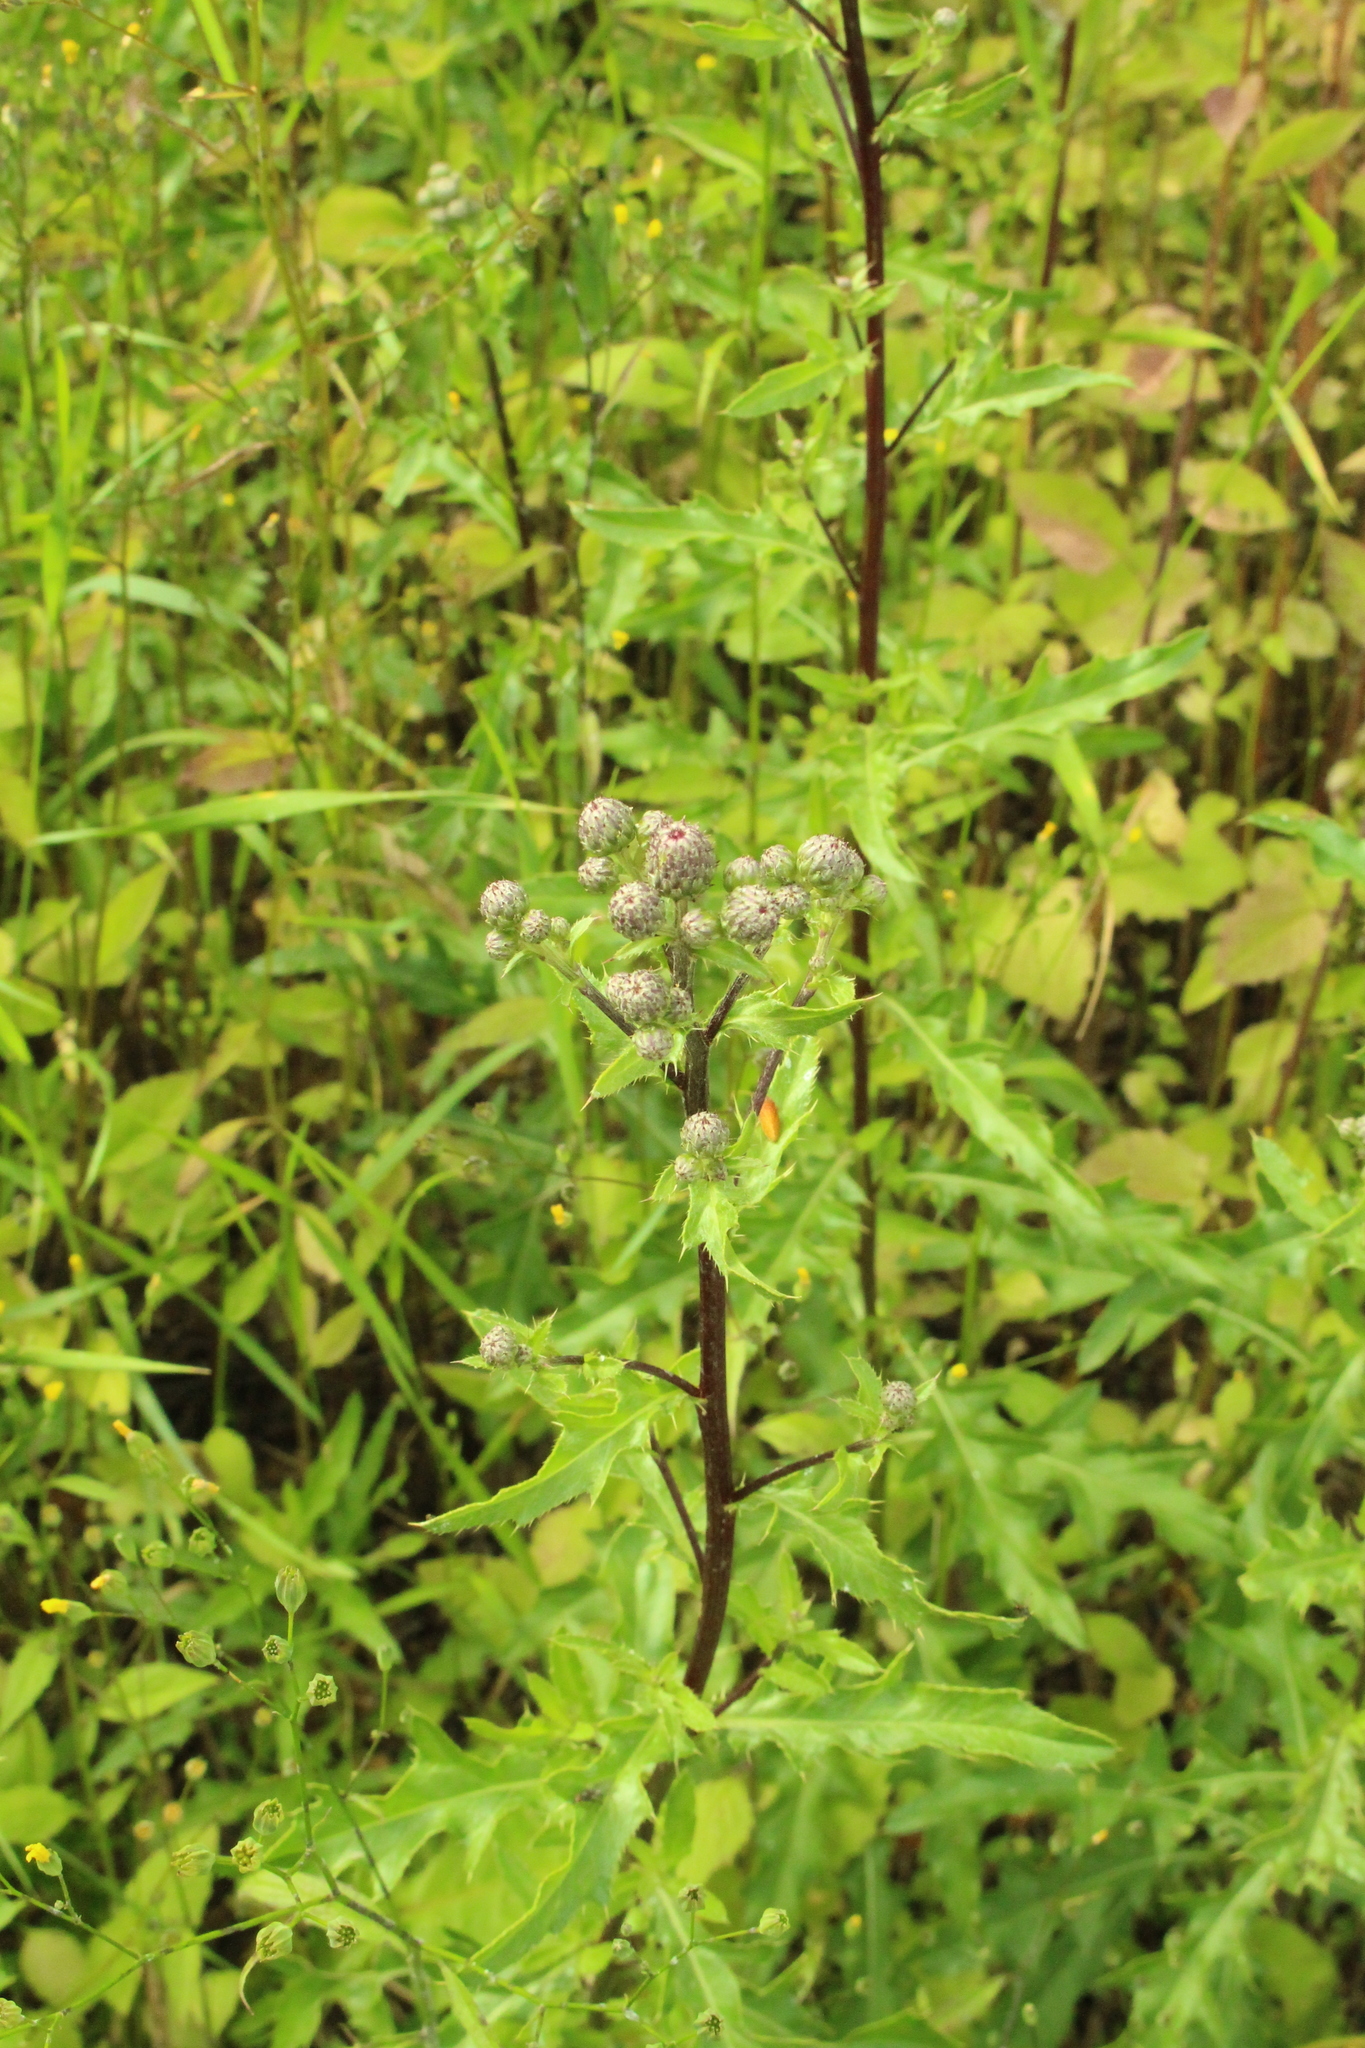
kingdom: Plantae
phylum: Tracheophyta
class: Magnoliopsida
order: Asterales
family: Asteraceae
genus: Cirsium
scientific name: Cirsium arvense
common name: Creeping thistle
